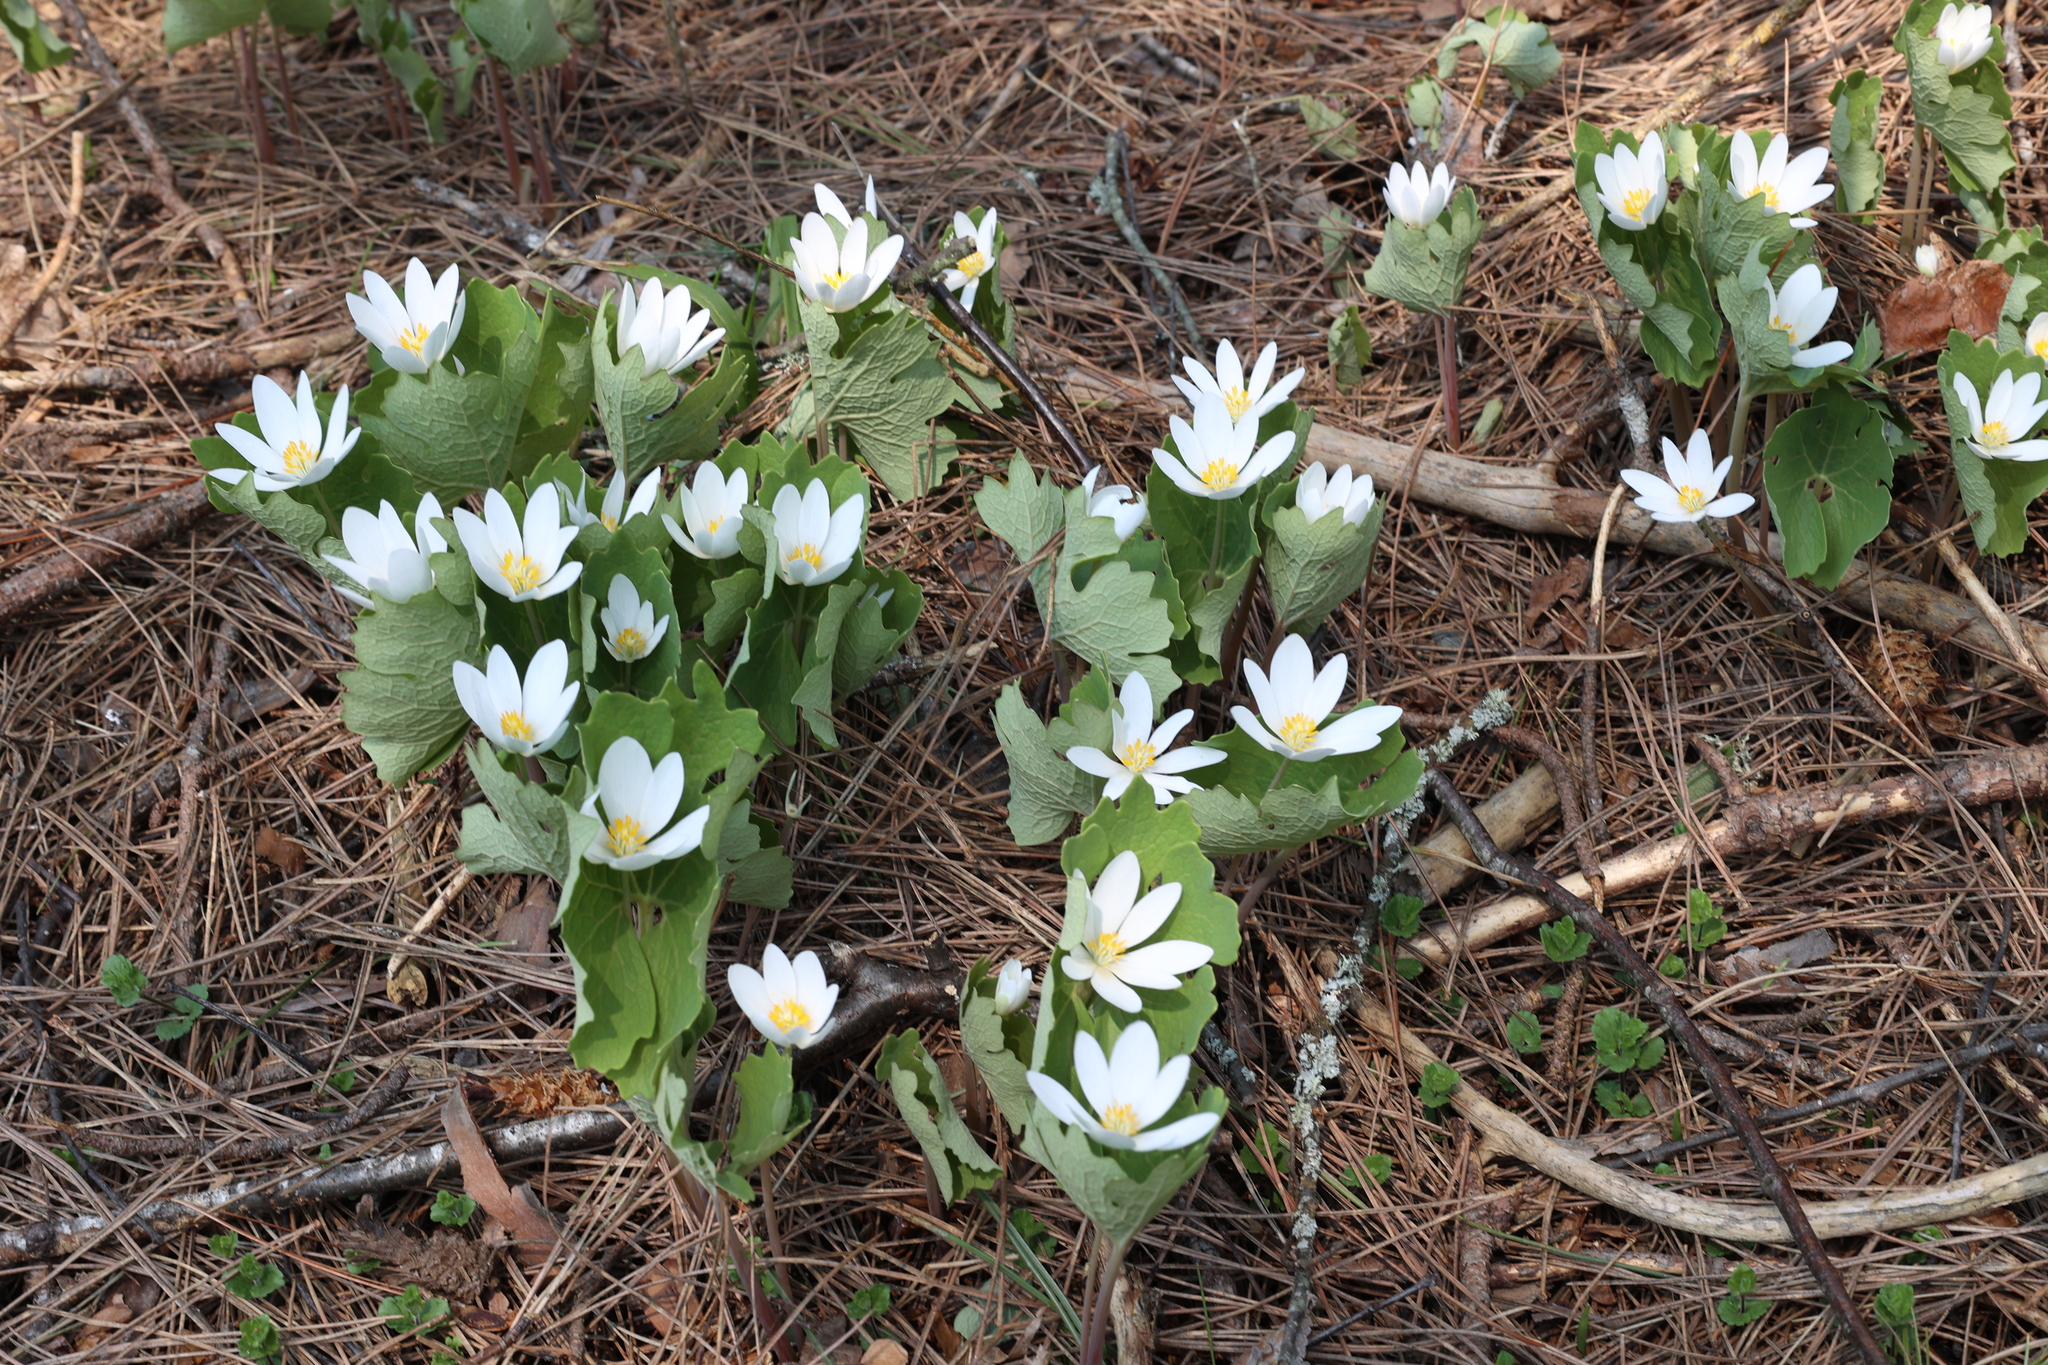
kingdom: Plantae
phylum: Tracheophyta
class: Magnoliopsida
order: Ranunculales
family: Papaveraceae
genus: Sanguinaria
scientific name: Sanguinaria canadensis
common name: Bloodroot
